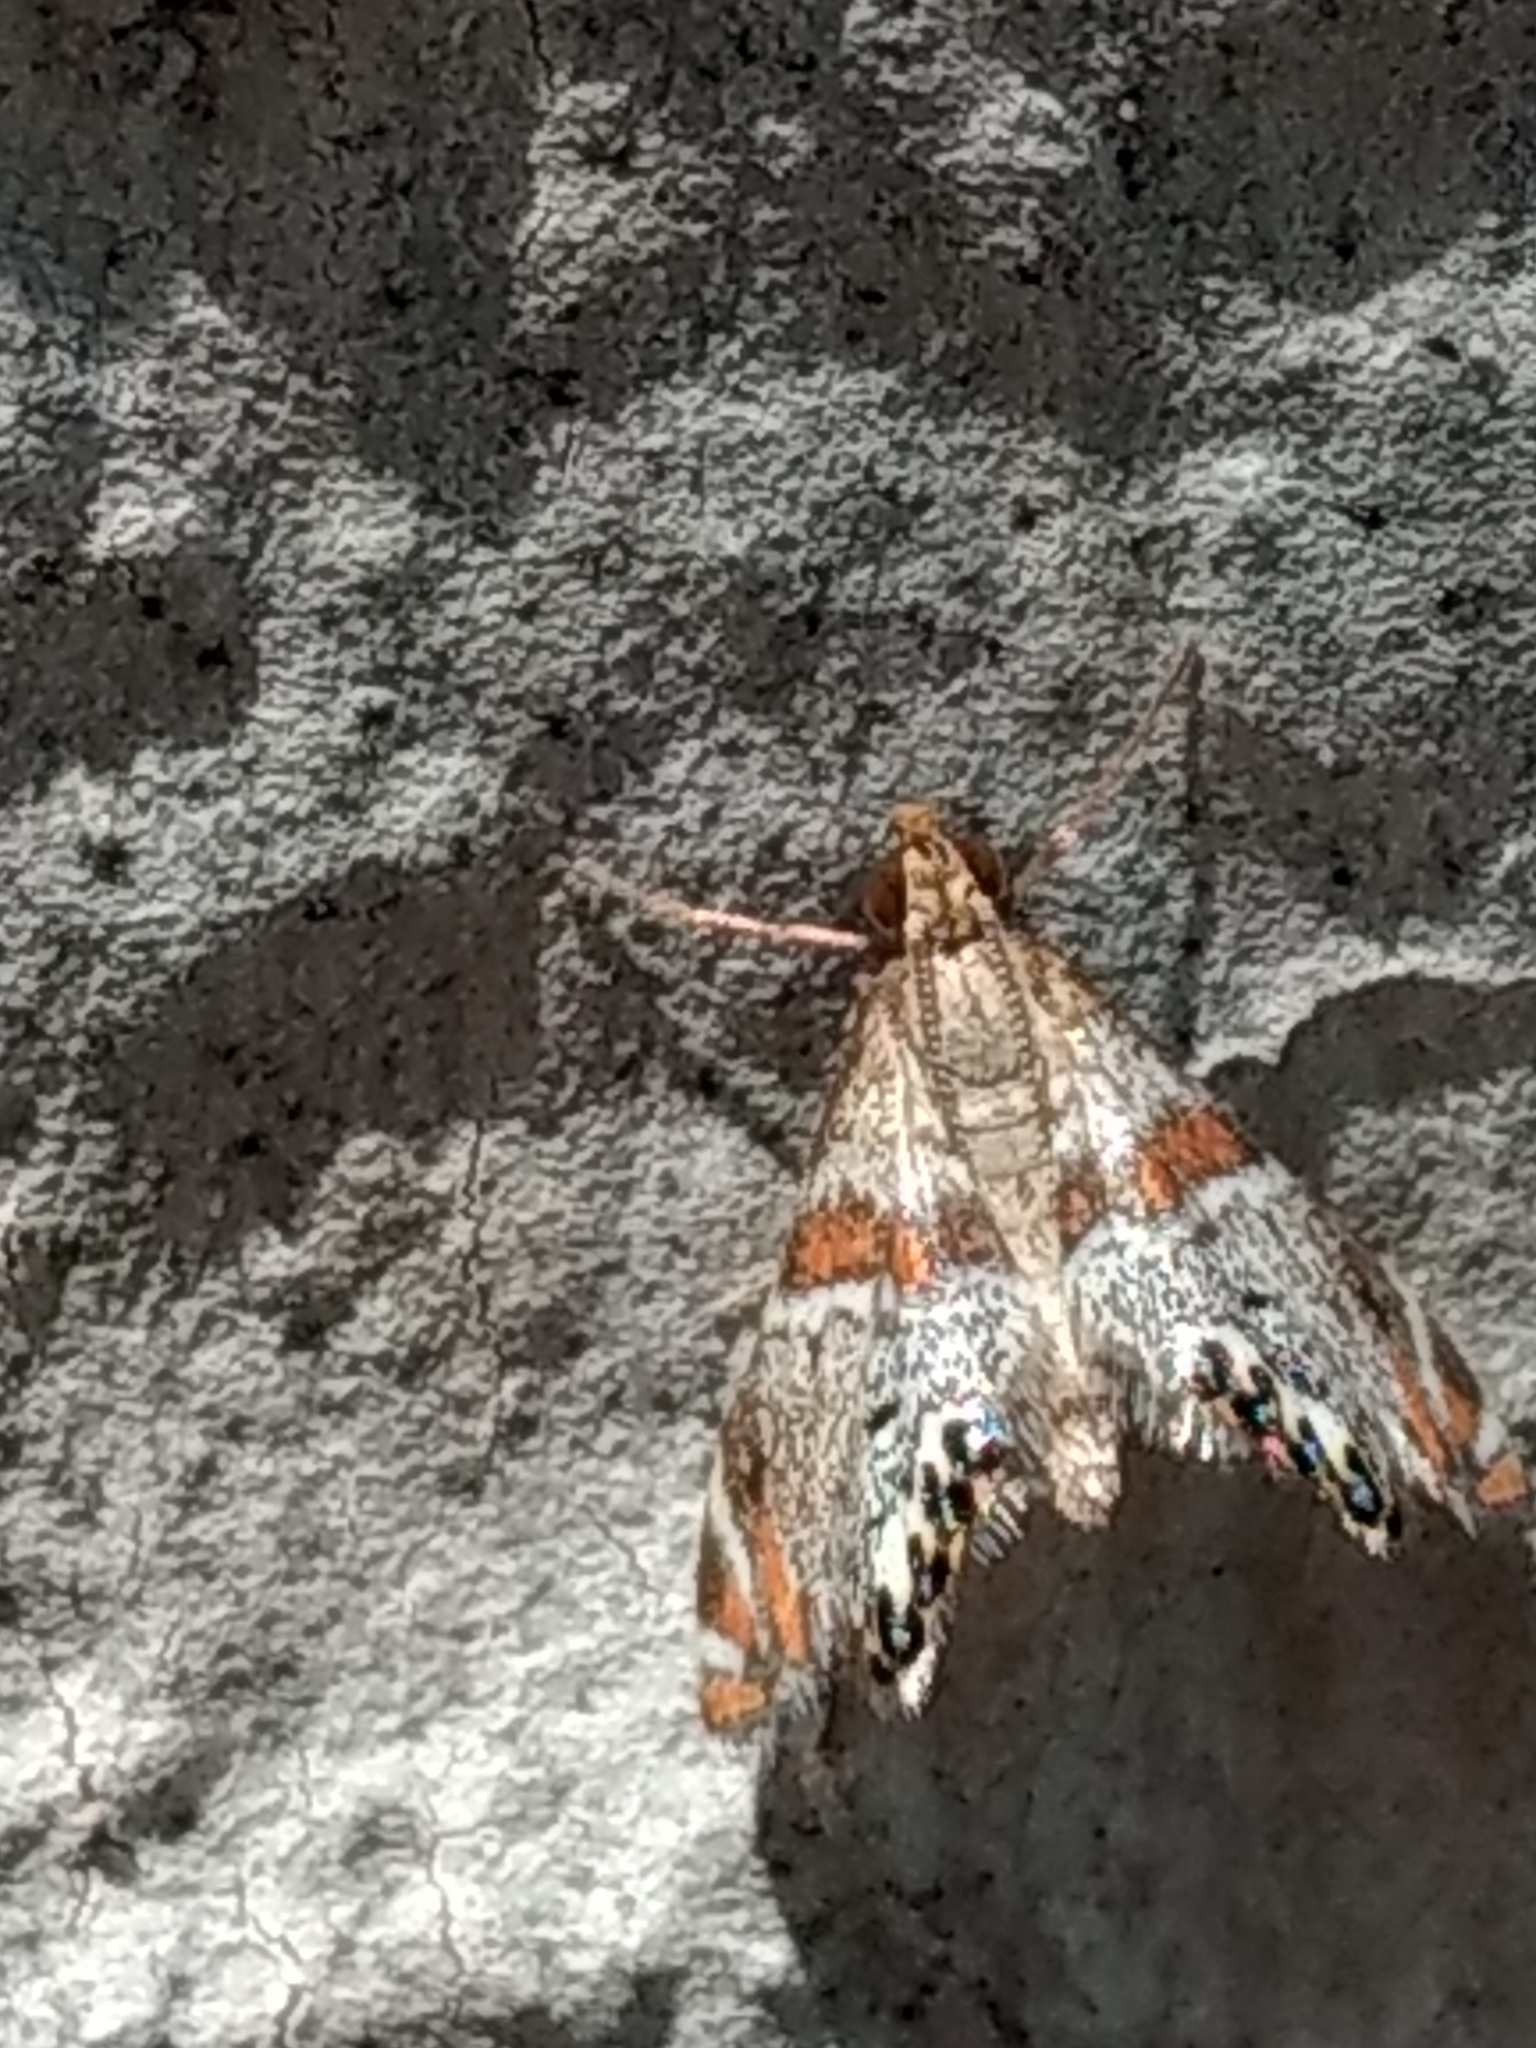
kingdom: Animalia
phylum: Arthropoda
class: Insecta
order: Lepidoptera
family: Crambidae
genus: Petrophila
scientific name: Petrophila jaliscalis
